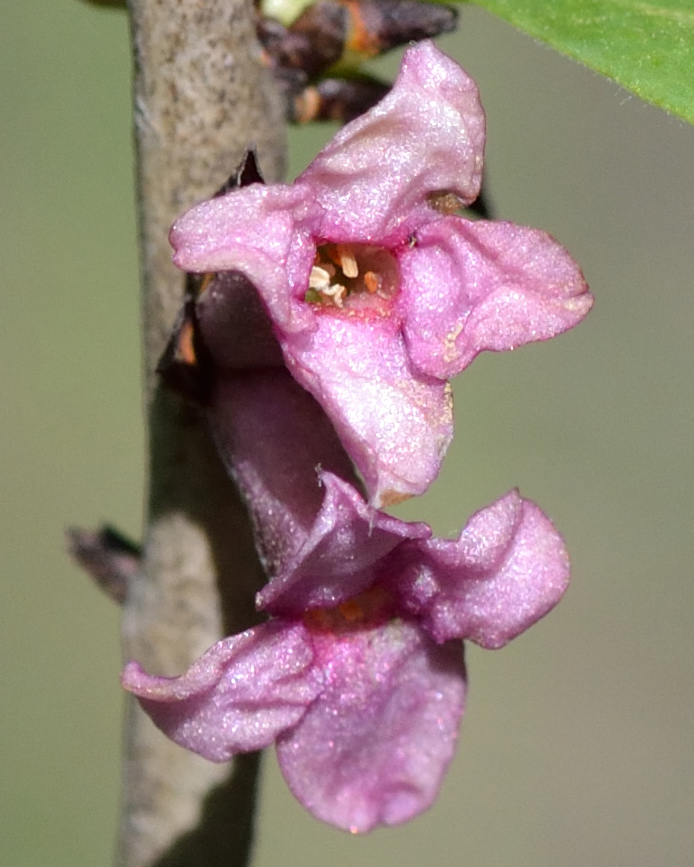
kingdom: Plantae
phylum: Tracheophyta
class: Magnoliopsida
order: Malvales
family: Thymelaeaceae
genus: Daphne
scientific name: Daphne mezereum
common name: Mezereon
